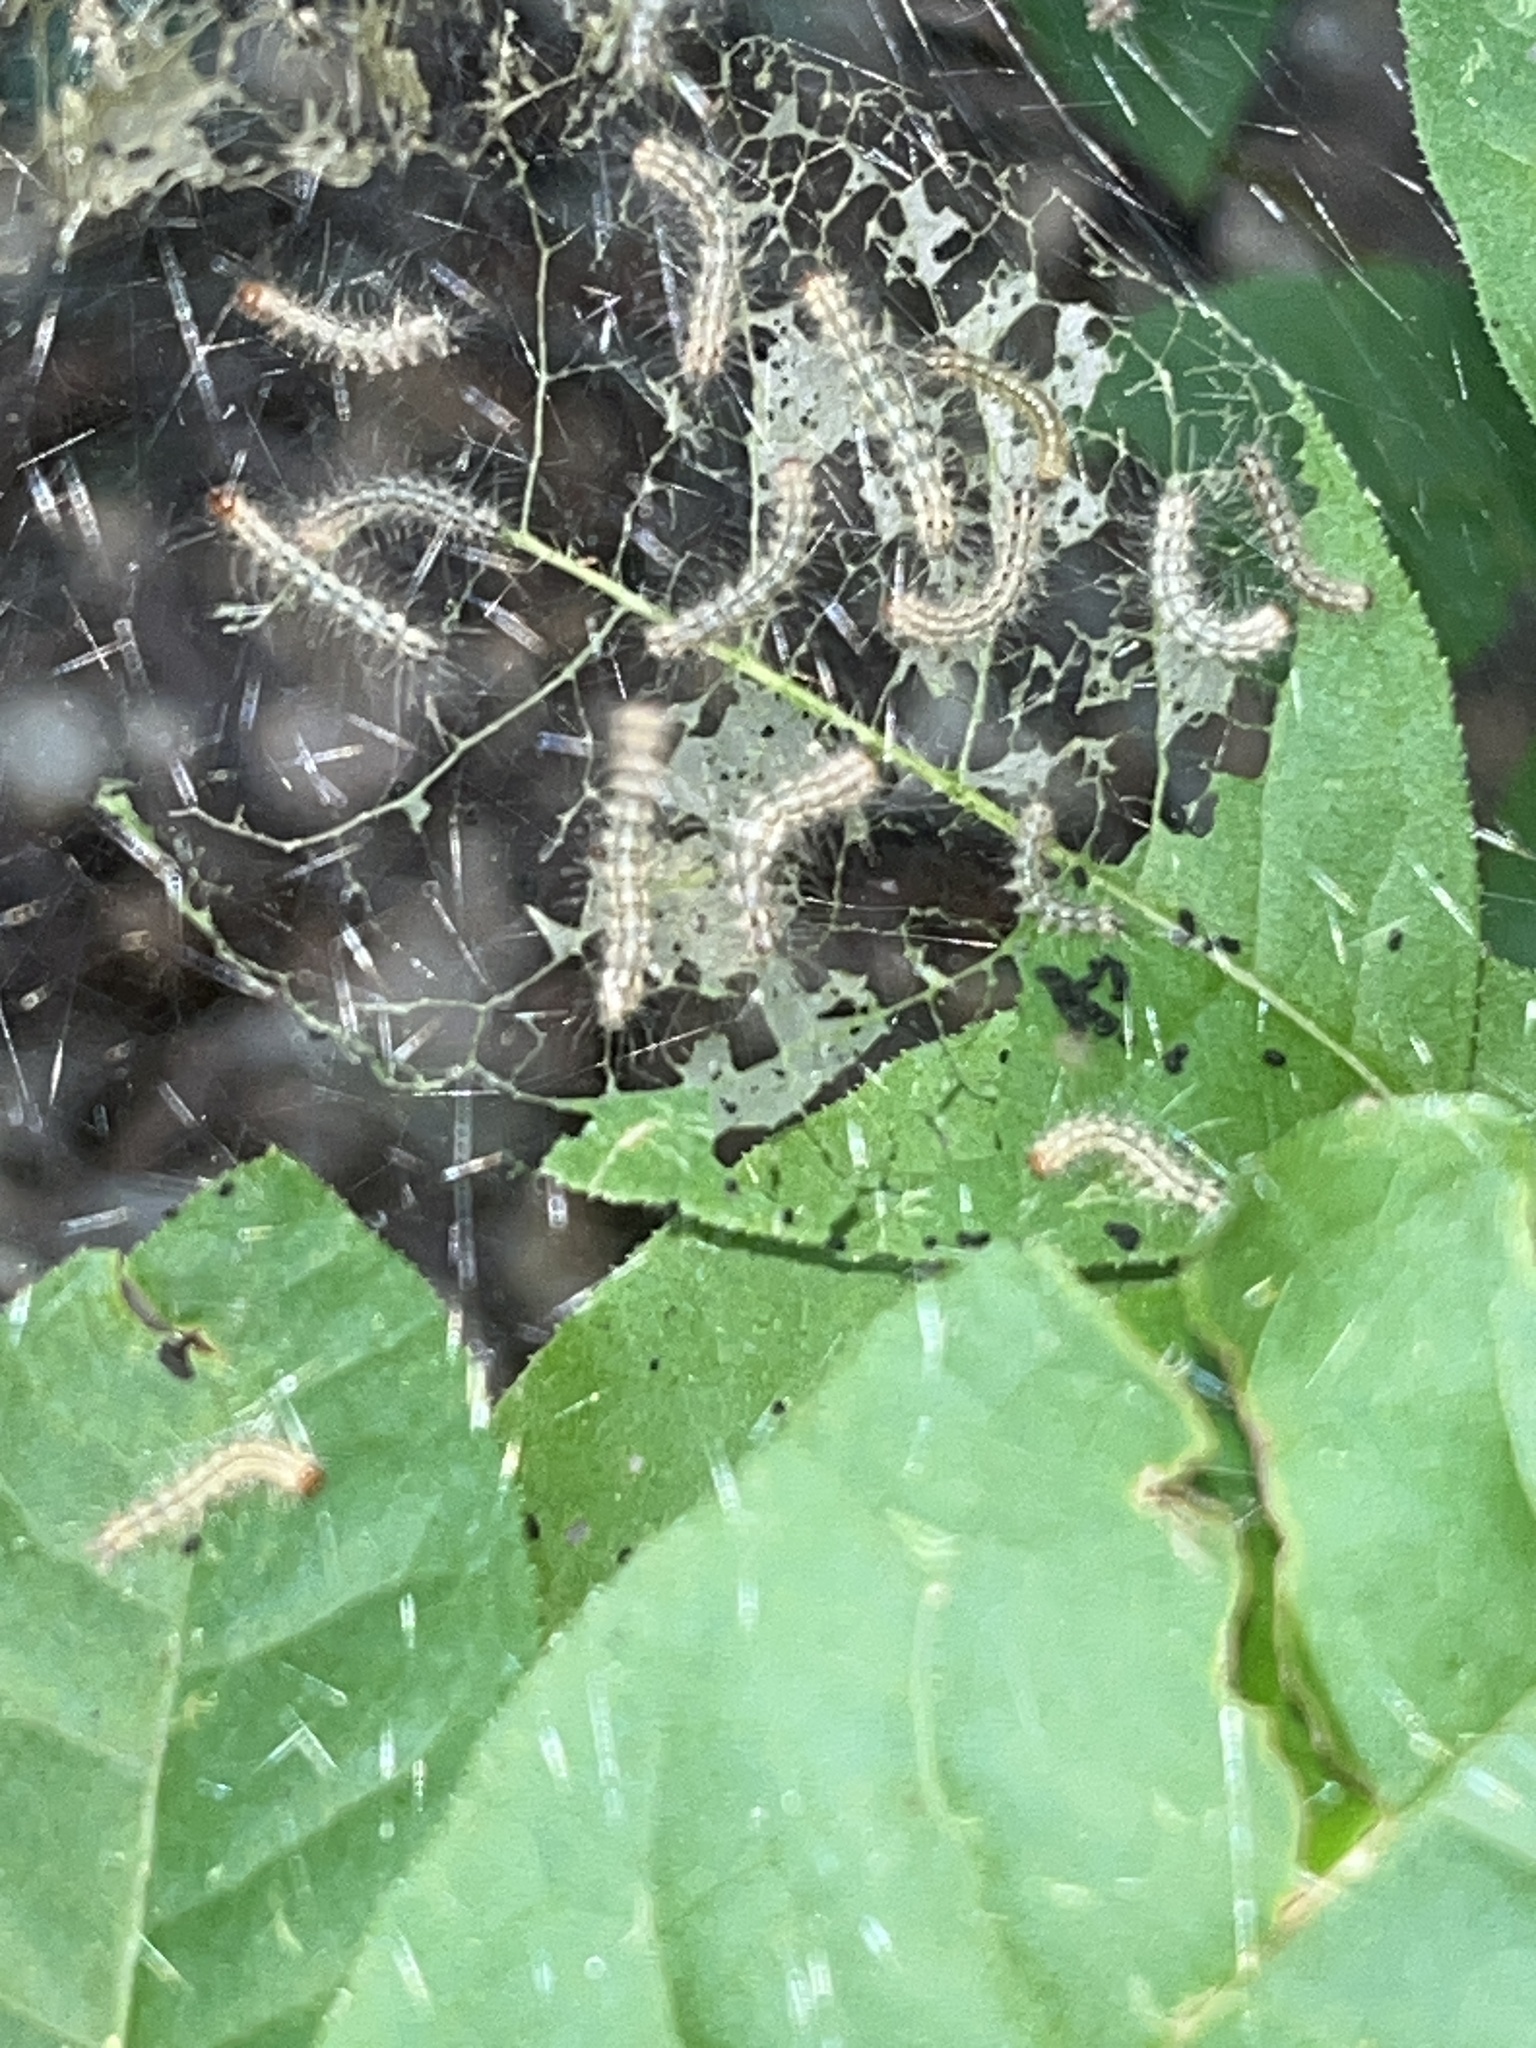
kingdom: Animalia
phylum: Arthropoda
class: Insecta
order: Lepidoptera
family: Erebidae
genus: Hyphantria
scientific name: Hyphantria cunea
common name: American white moth
